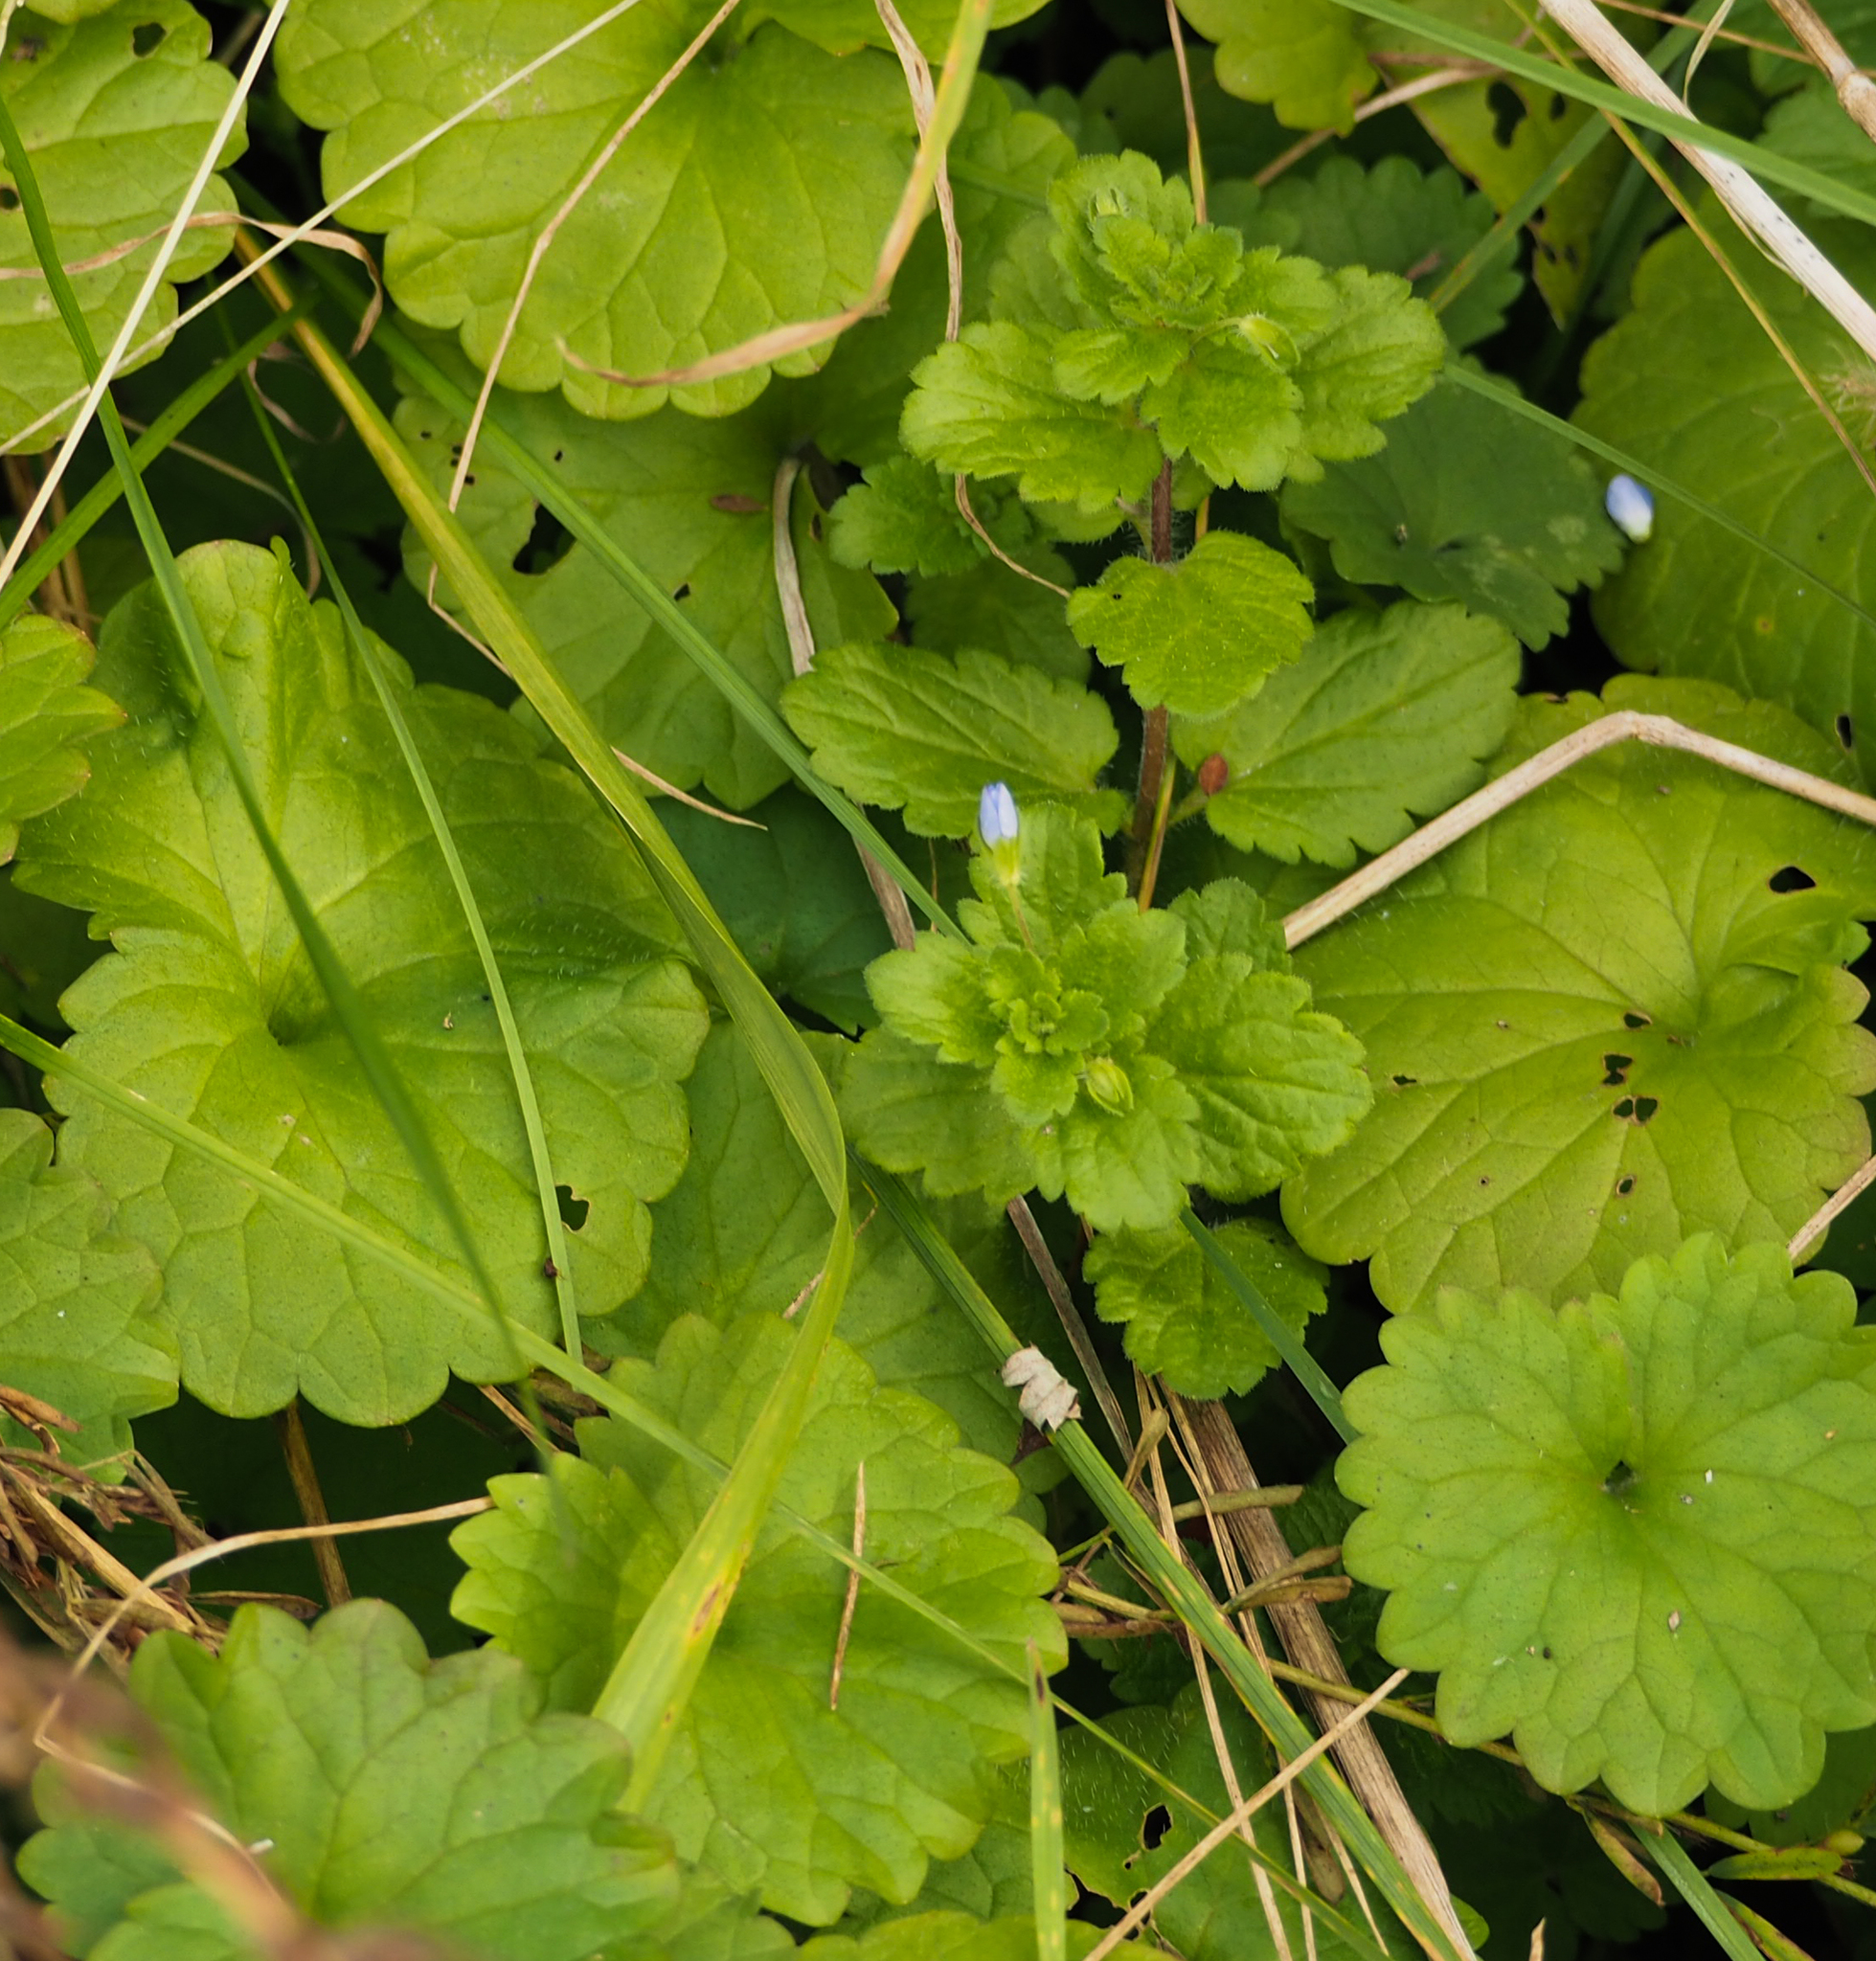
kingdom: Plantae
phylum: Tracheophyta
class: Magnoliopsida
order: Lamiales
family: Lamiaceae
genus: Glechoma
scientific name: Glechoma hederacea
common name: Ground ivy
